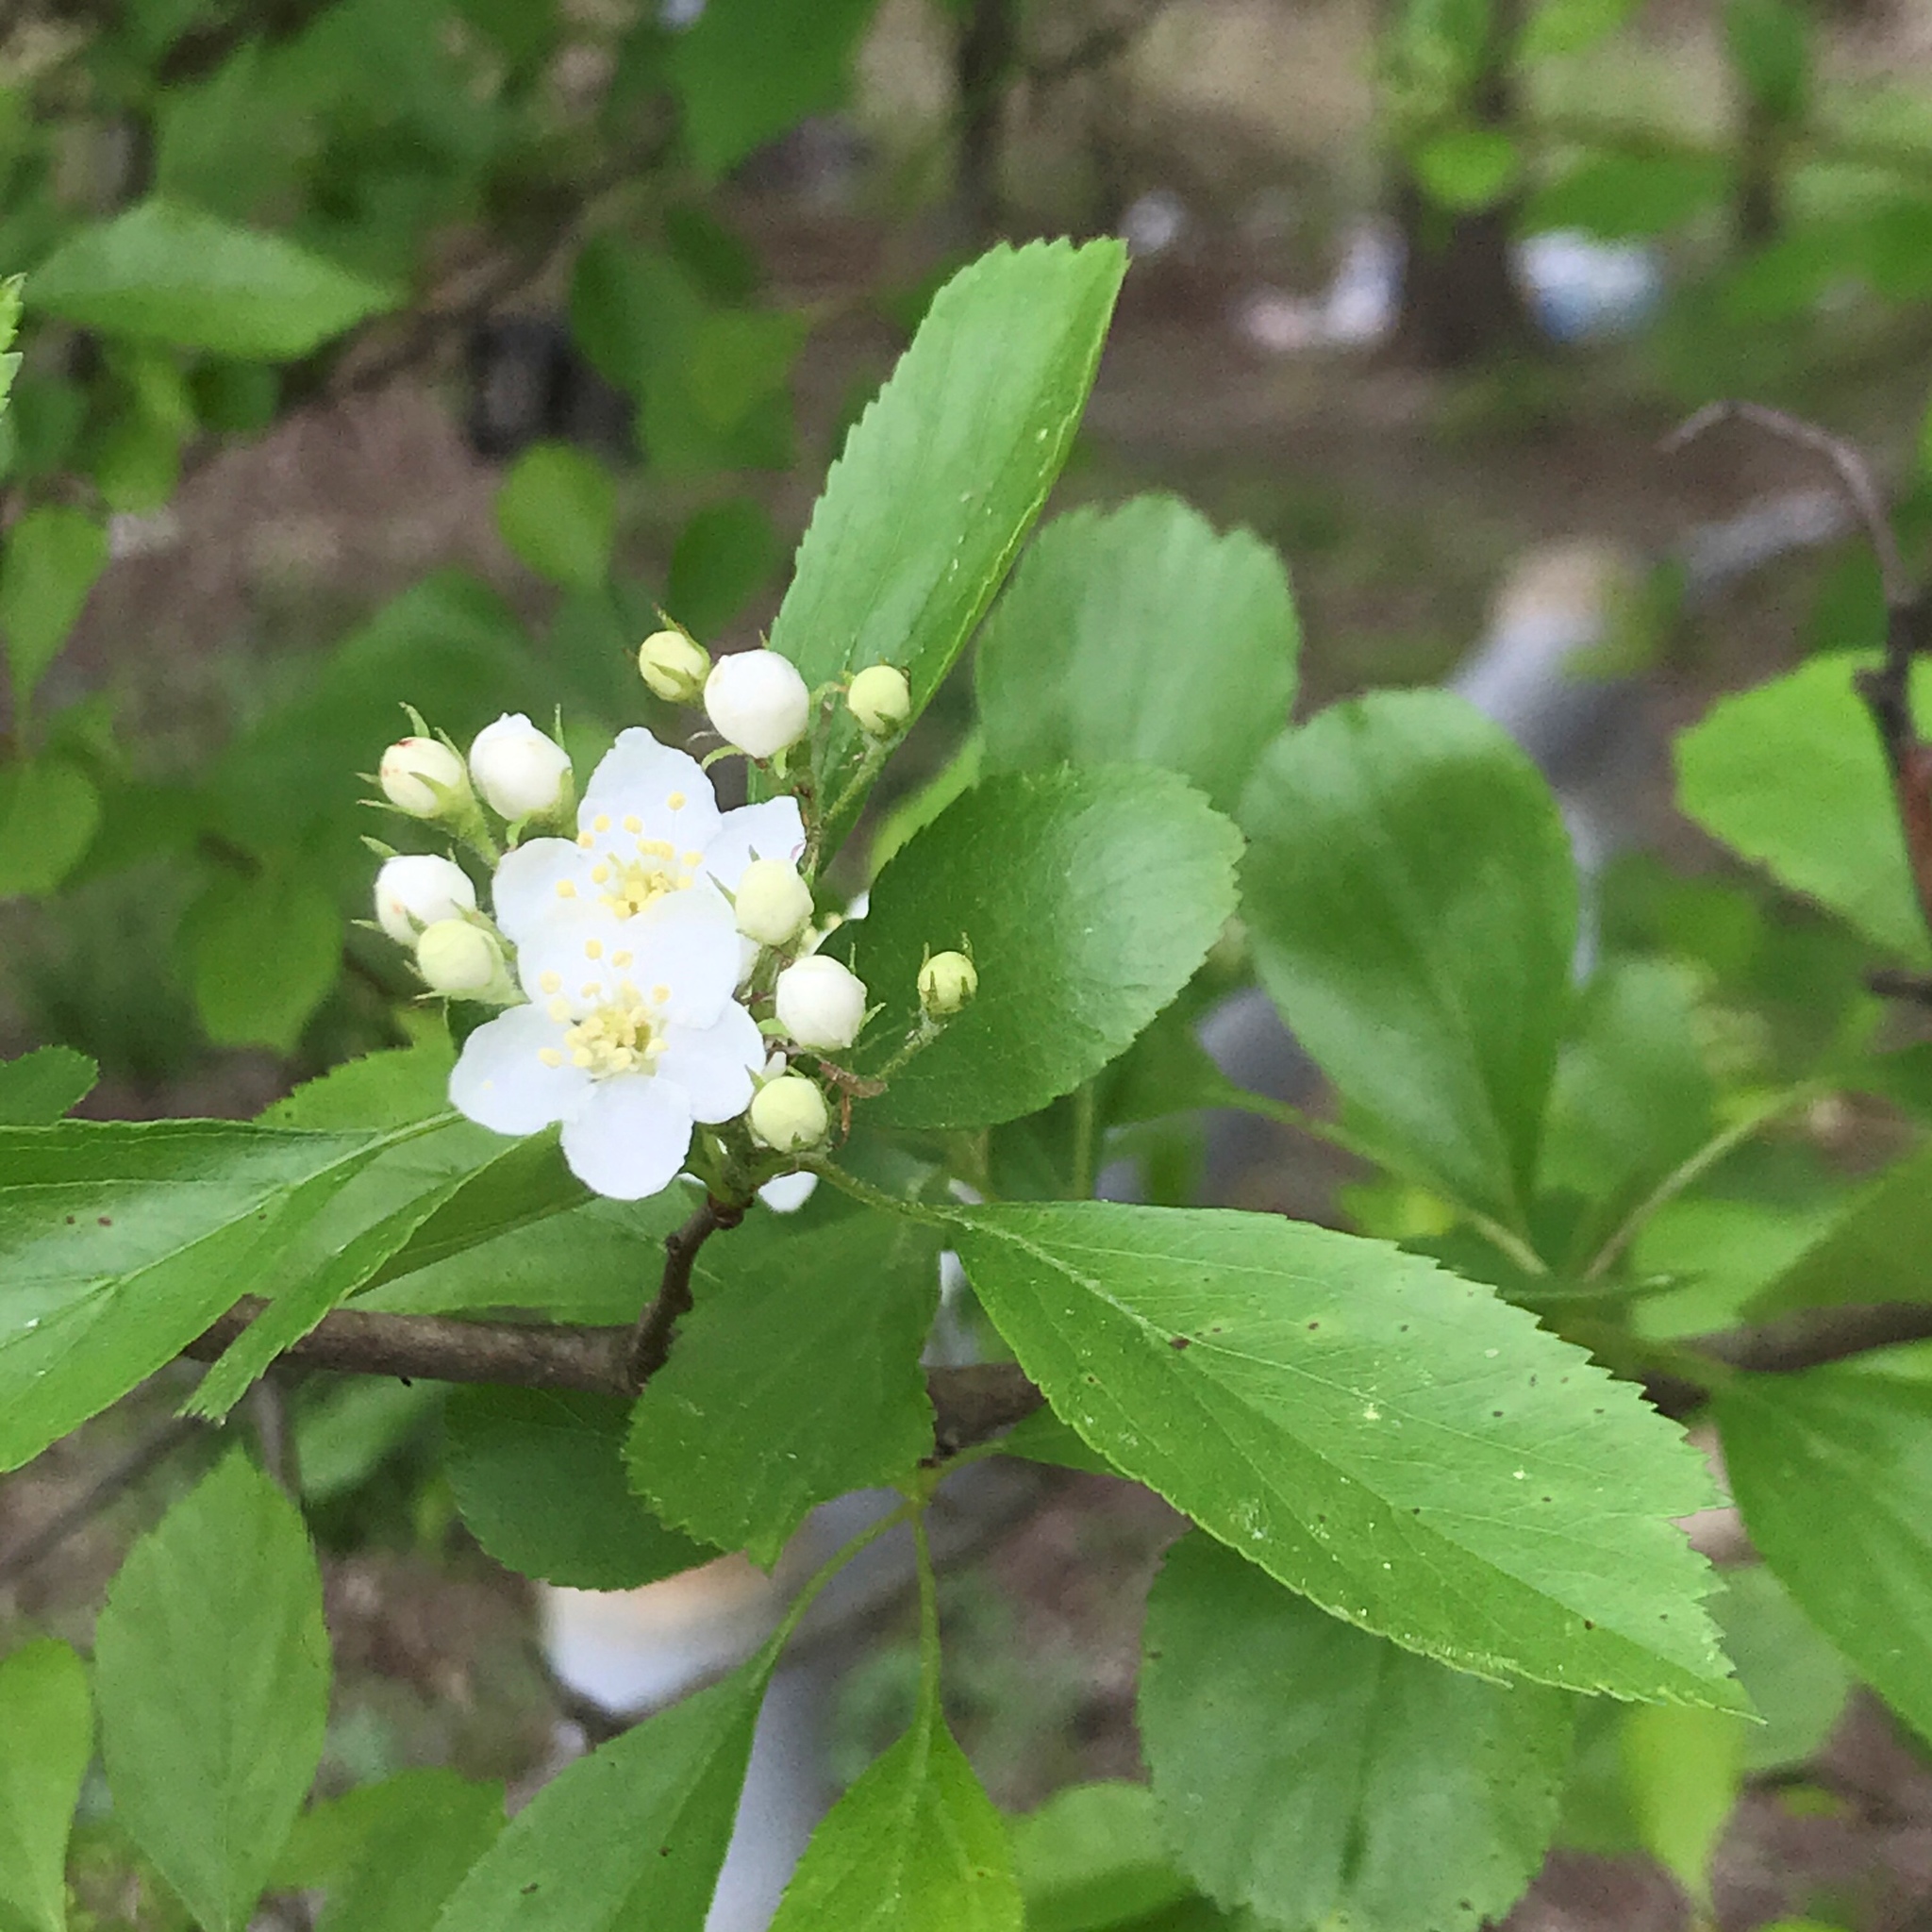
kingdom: Plantae
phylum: Tracheophyta
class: Magnoliopsida
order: Rosales
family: Rosaceae
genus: Crataegus
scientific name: Crataegus spathulata
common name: Littlehip hawthorn
